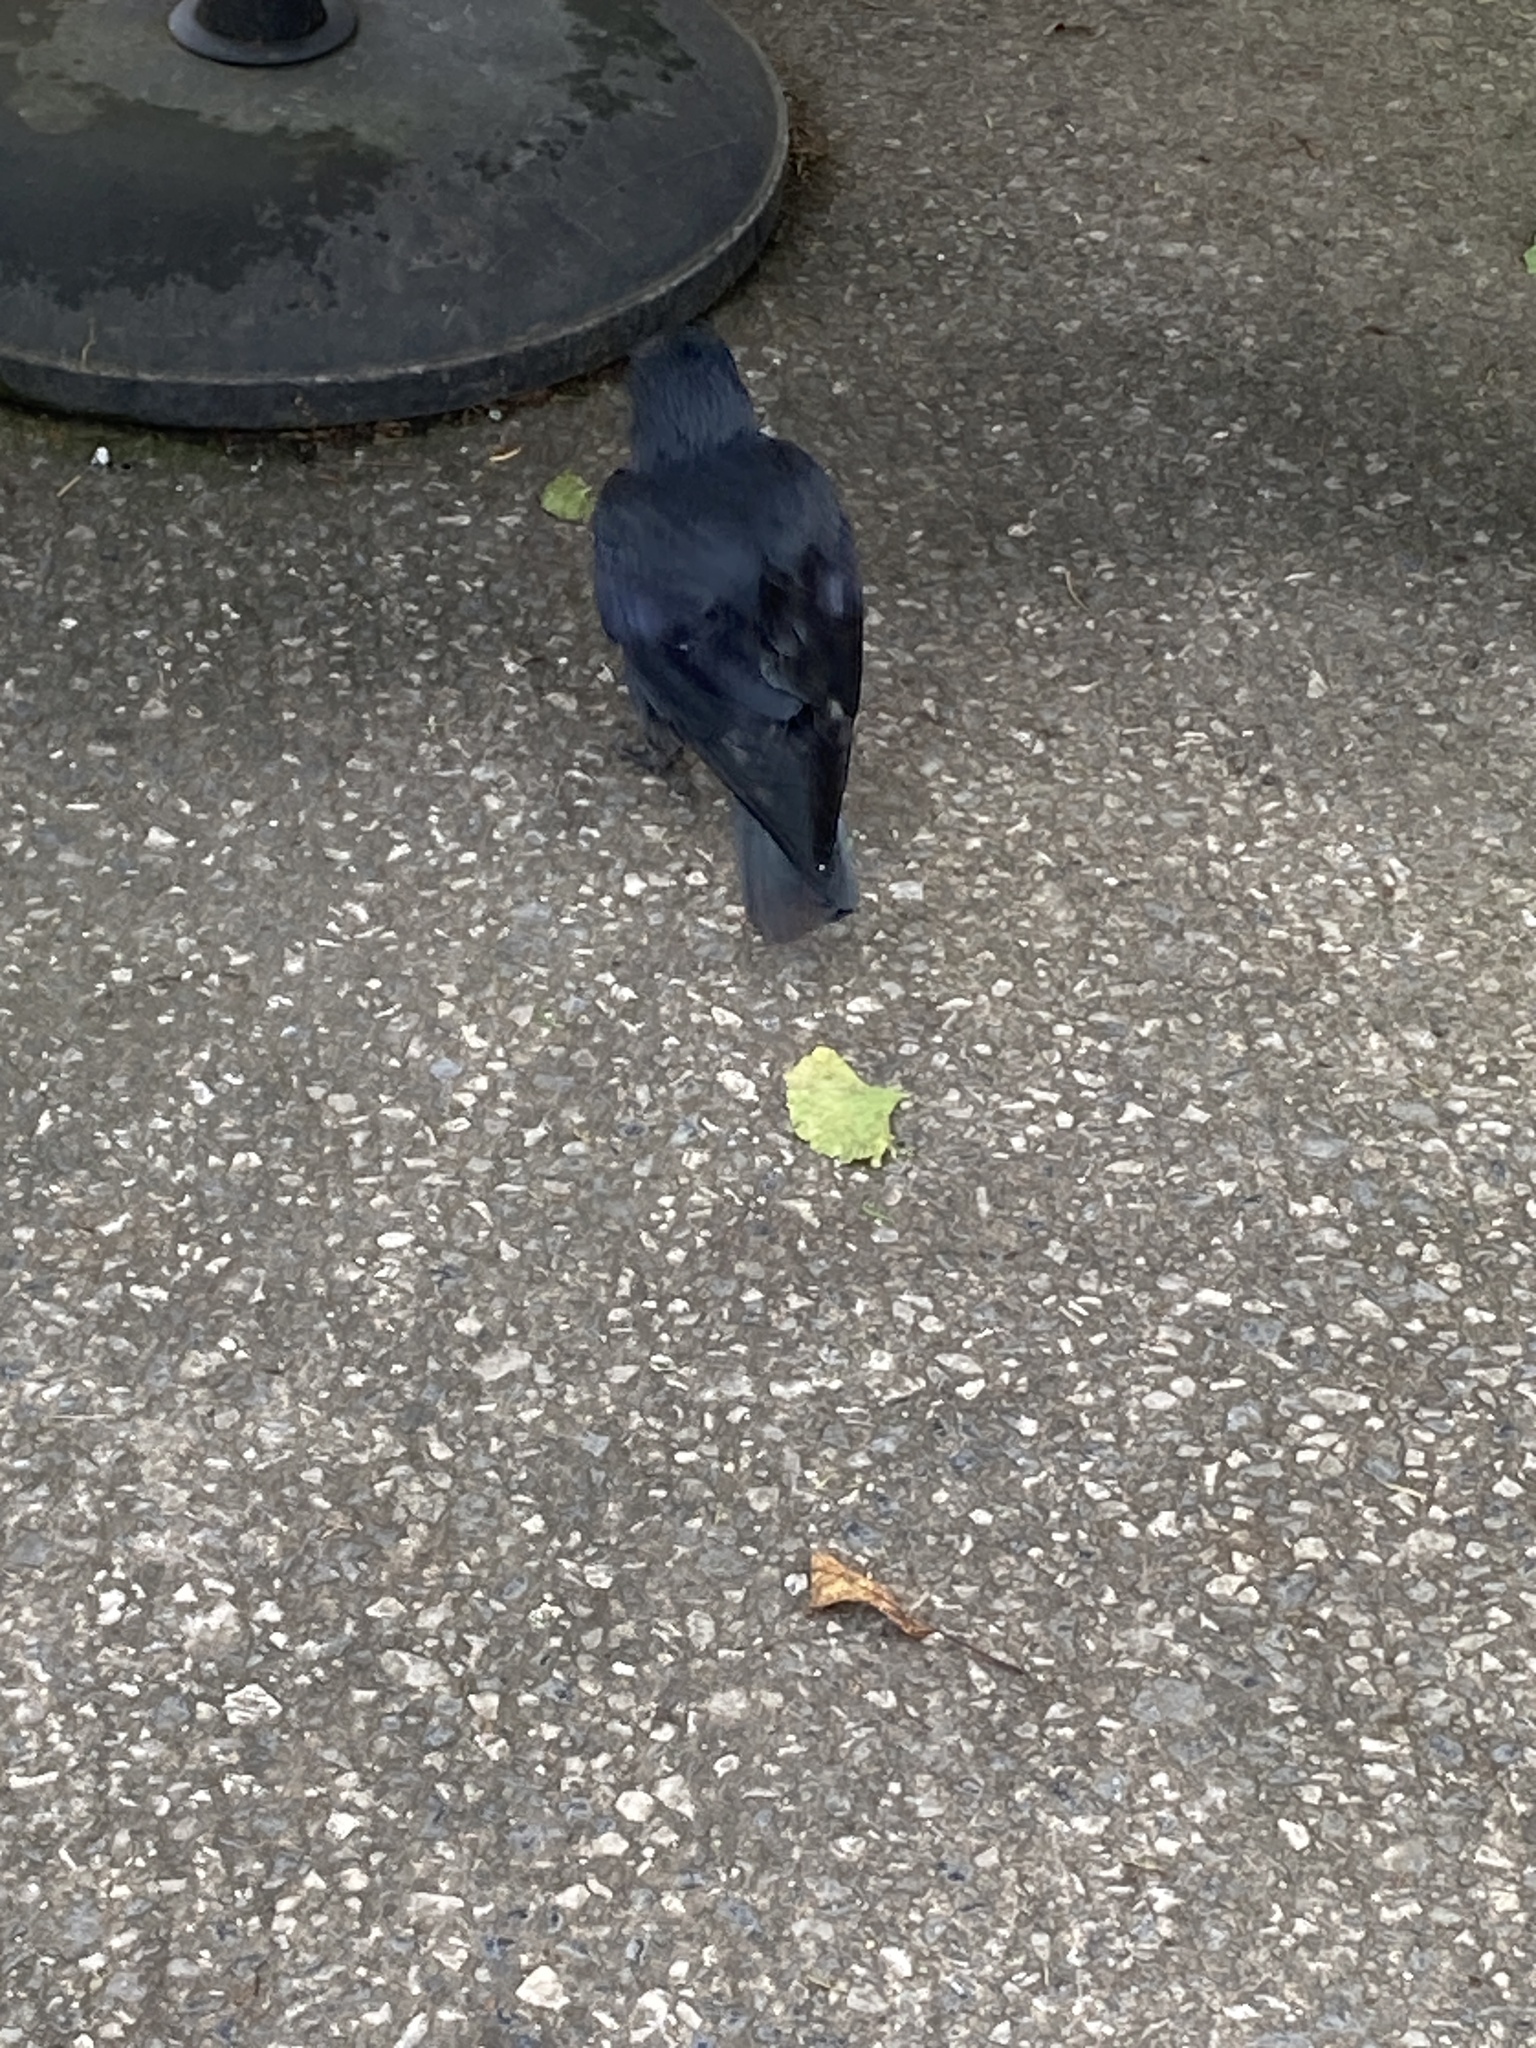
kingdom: Animalia
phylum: Chordata
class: Aves
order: Passeriformes
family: Corvidae
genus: Coloeus
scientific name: Coloeus monedula
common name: Western jackdaw
